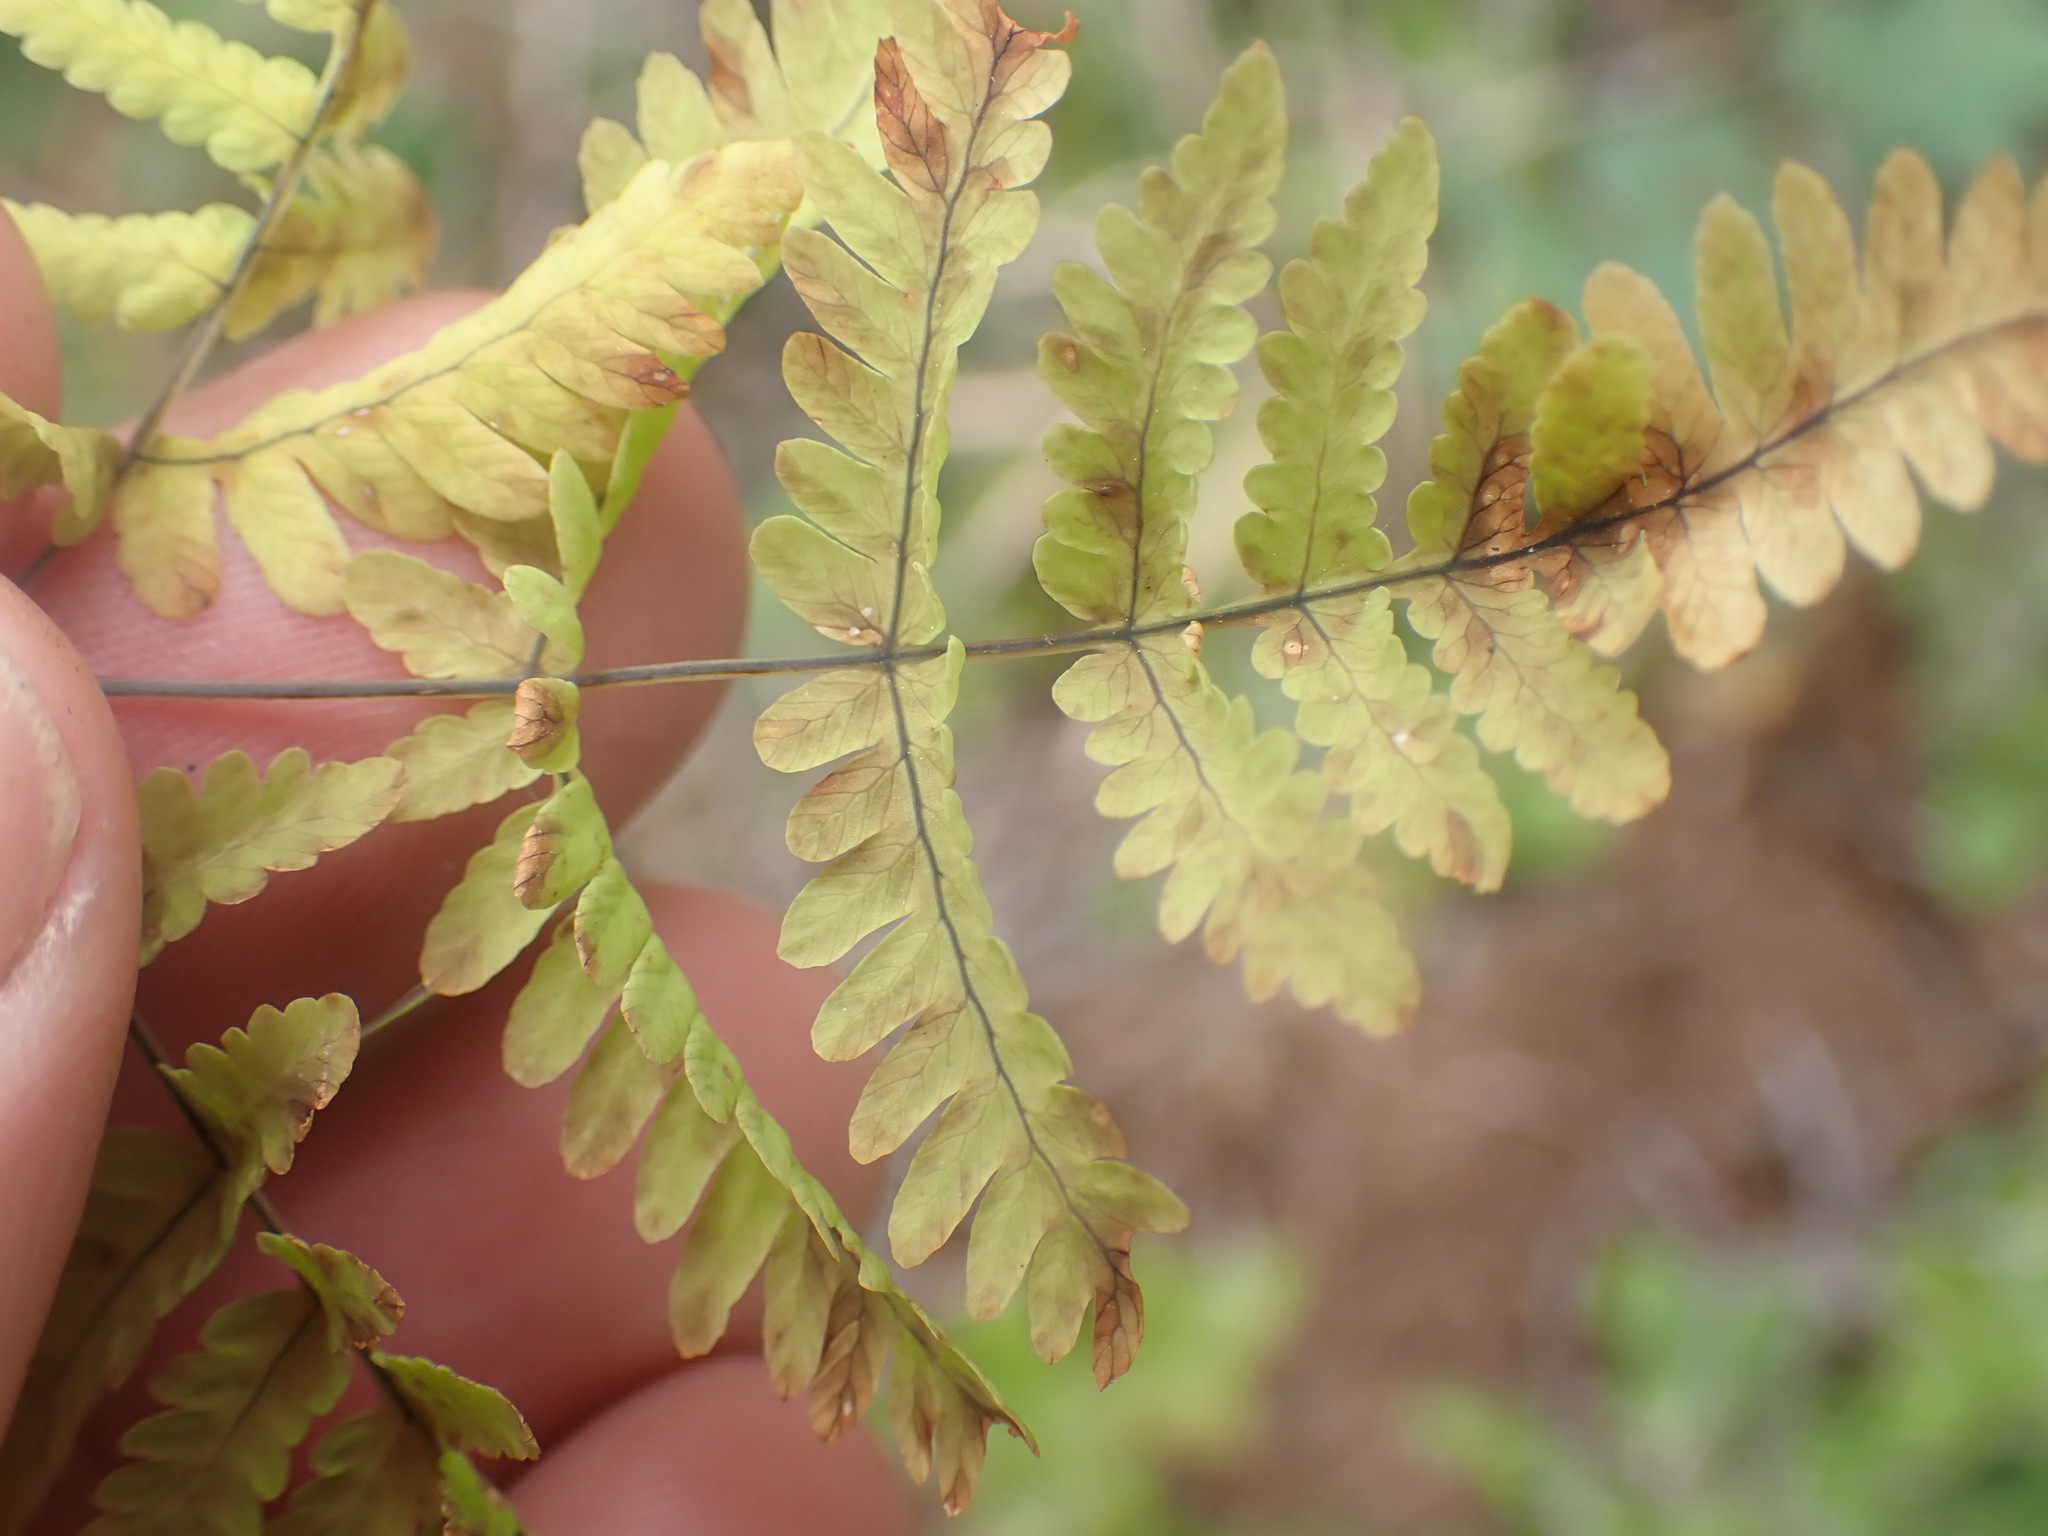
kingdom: Plantae
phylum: Tracheophyta
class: Polypodiopsida
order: Polypodiales
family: Cystopteridaceae
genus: Gymnocarpium
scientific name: Gymnocarpium dryopteris
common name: Oak fern
